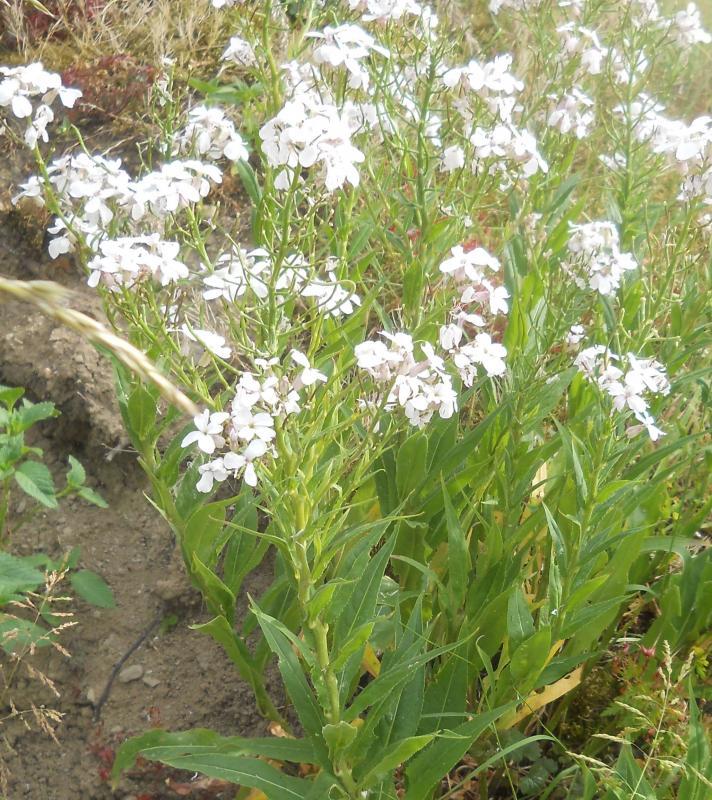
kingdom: Plantae
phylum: Tracheophyta
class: Magnoliopsida
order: Brassicales
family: Brassicaceae
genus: Hesperis
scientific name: Hesperis matronalis
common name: Dame's-violet
